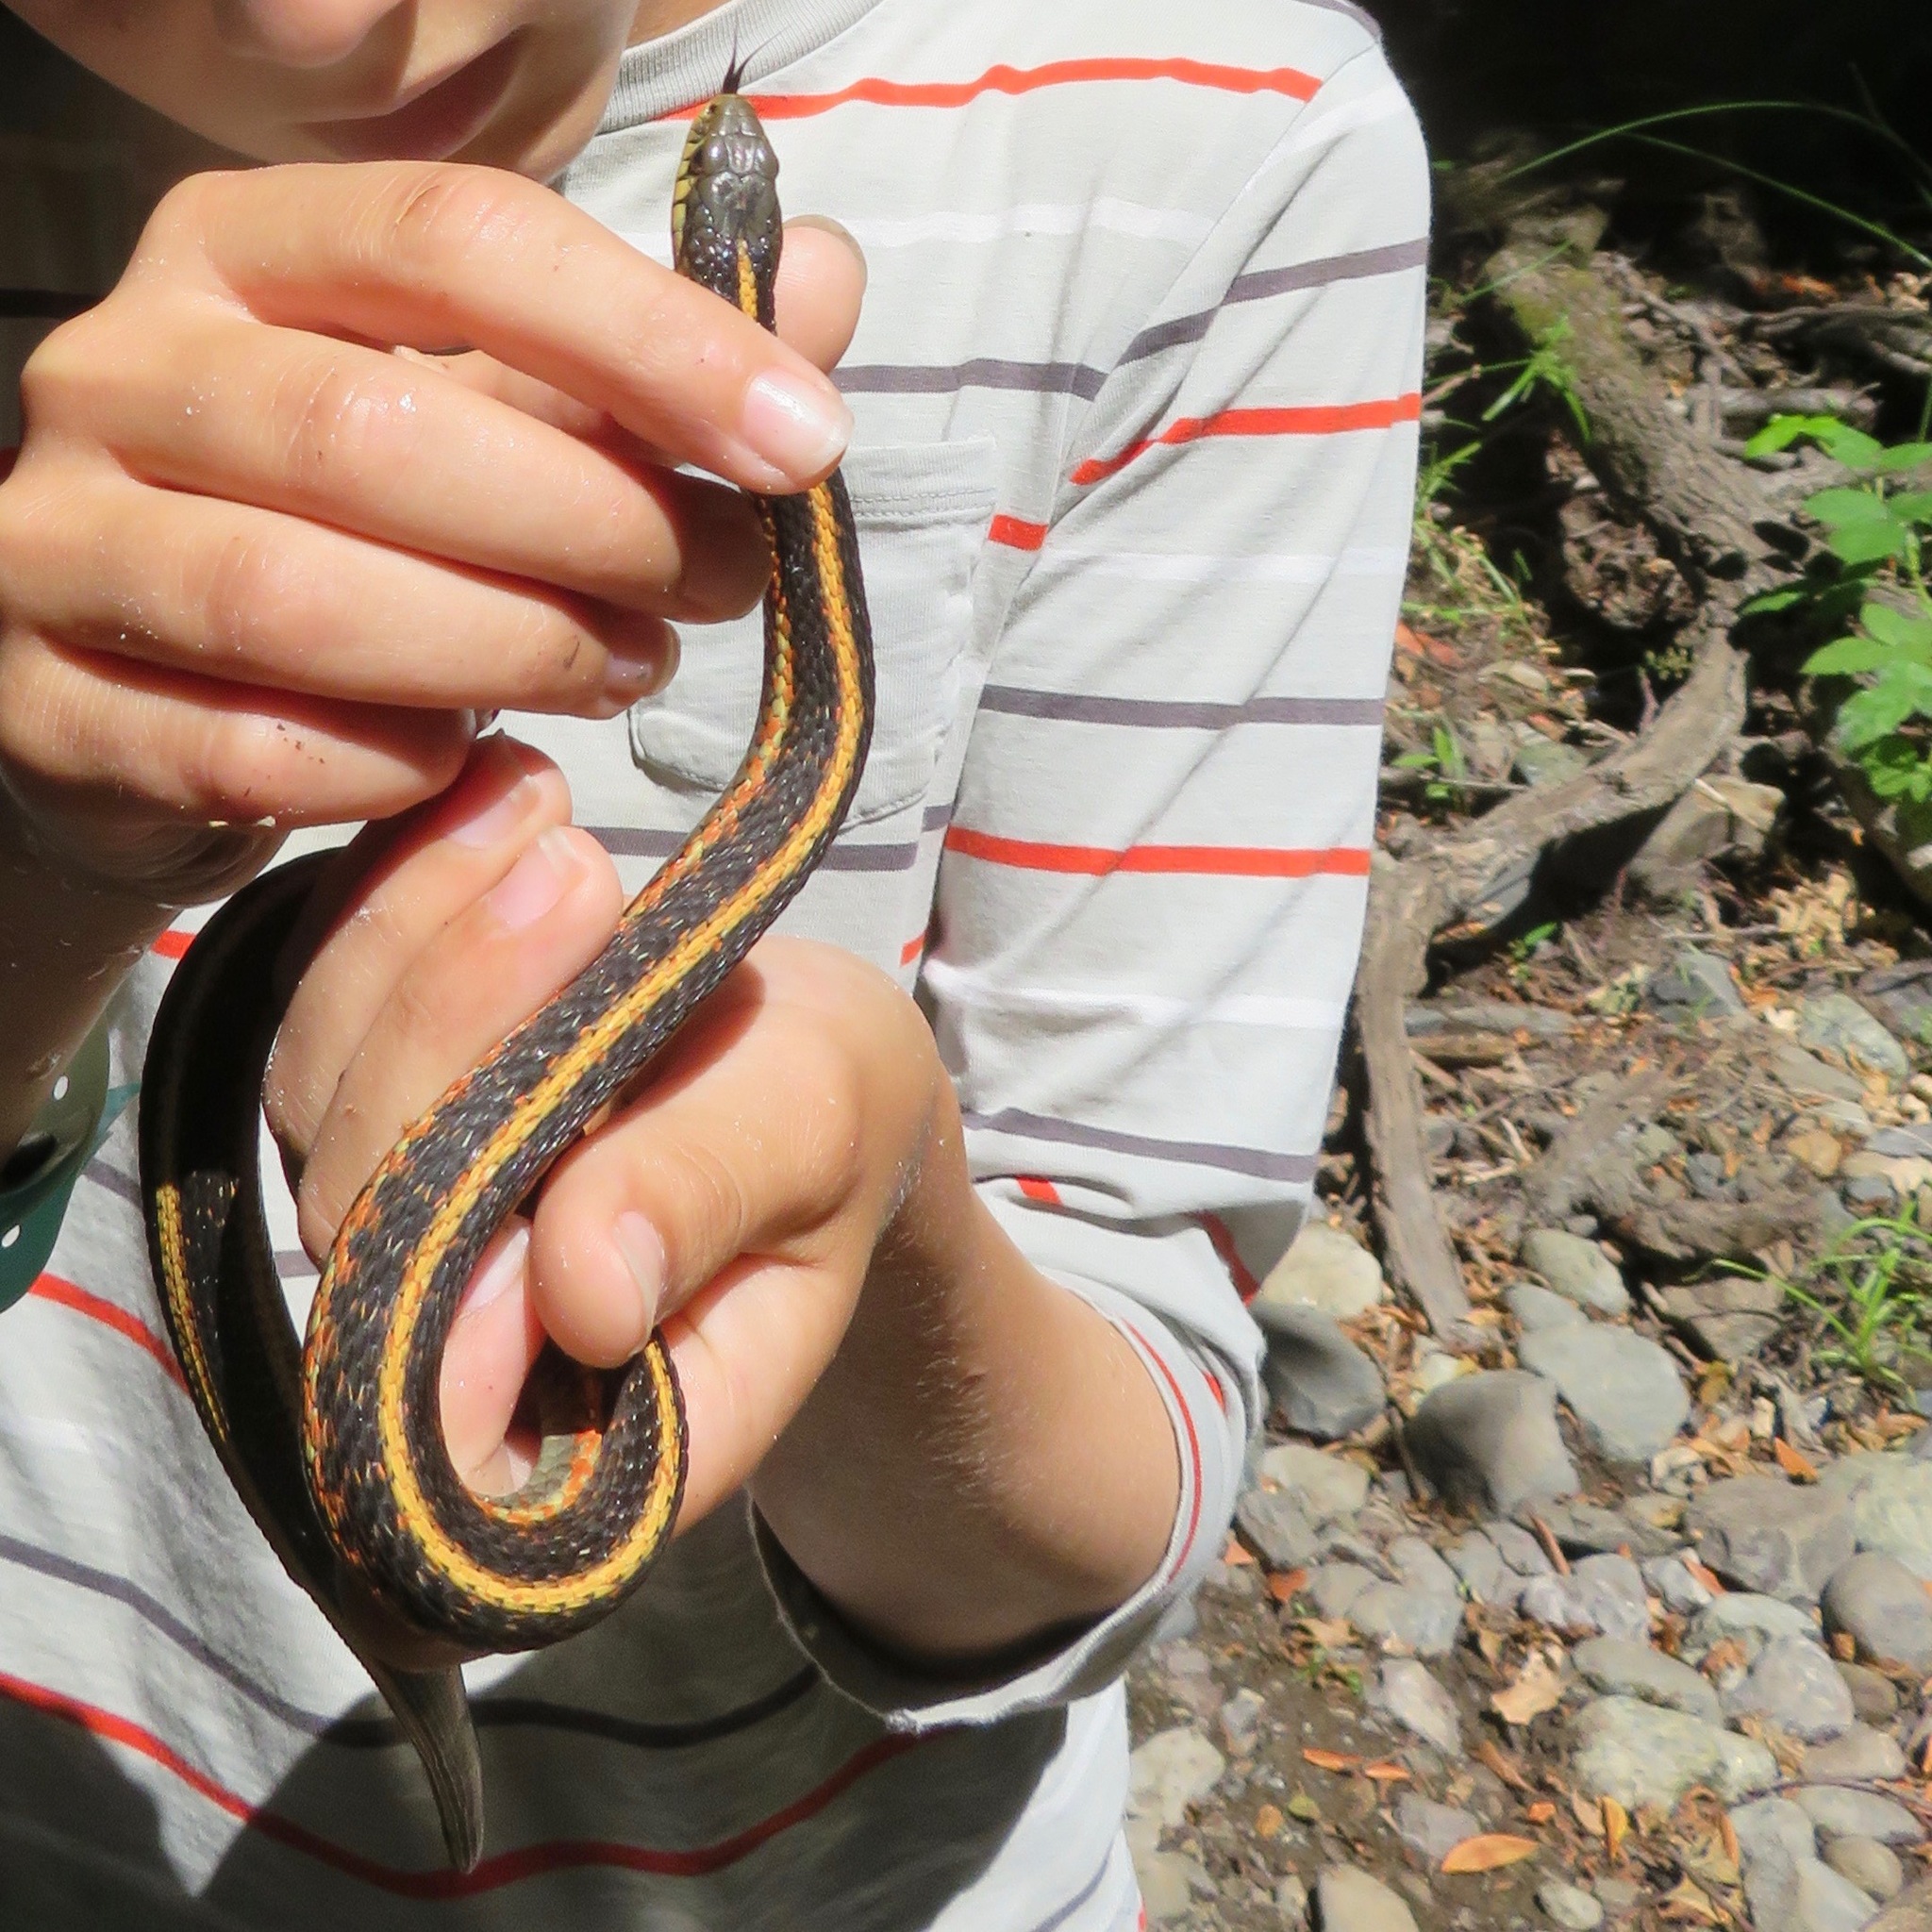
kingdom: Animalia
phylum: Chordata
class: Squamata
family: Colubridae
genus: Thamnophis
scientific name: Thamnophis elegans
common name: Western terrestrial garter snake
